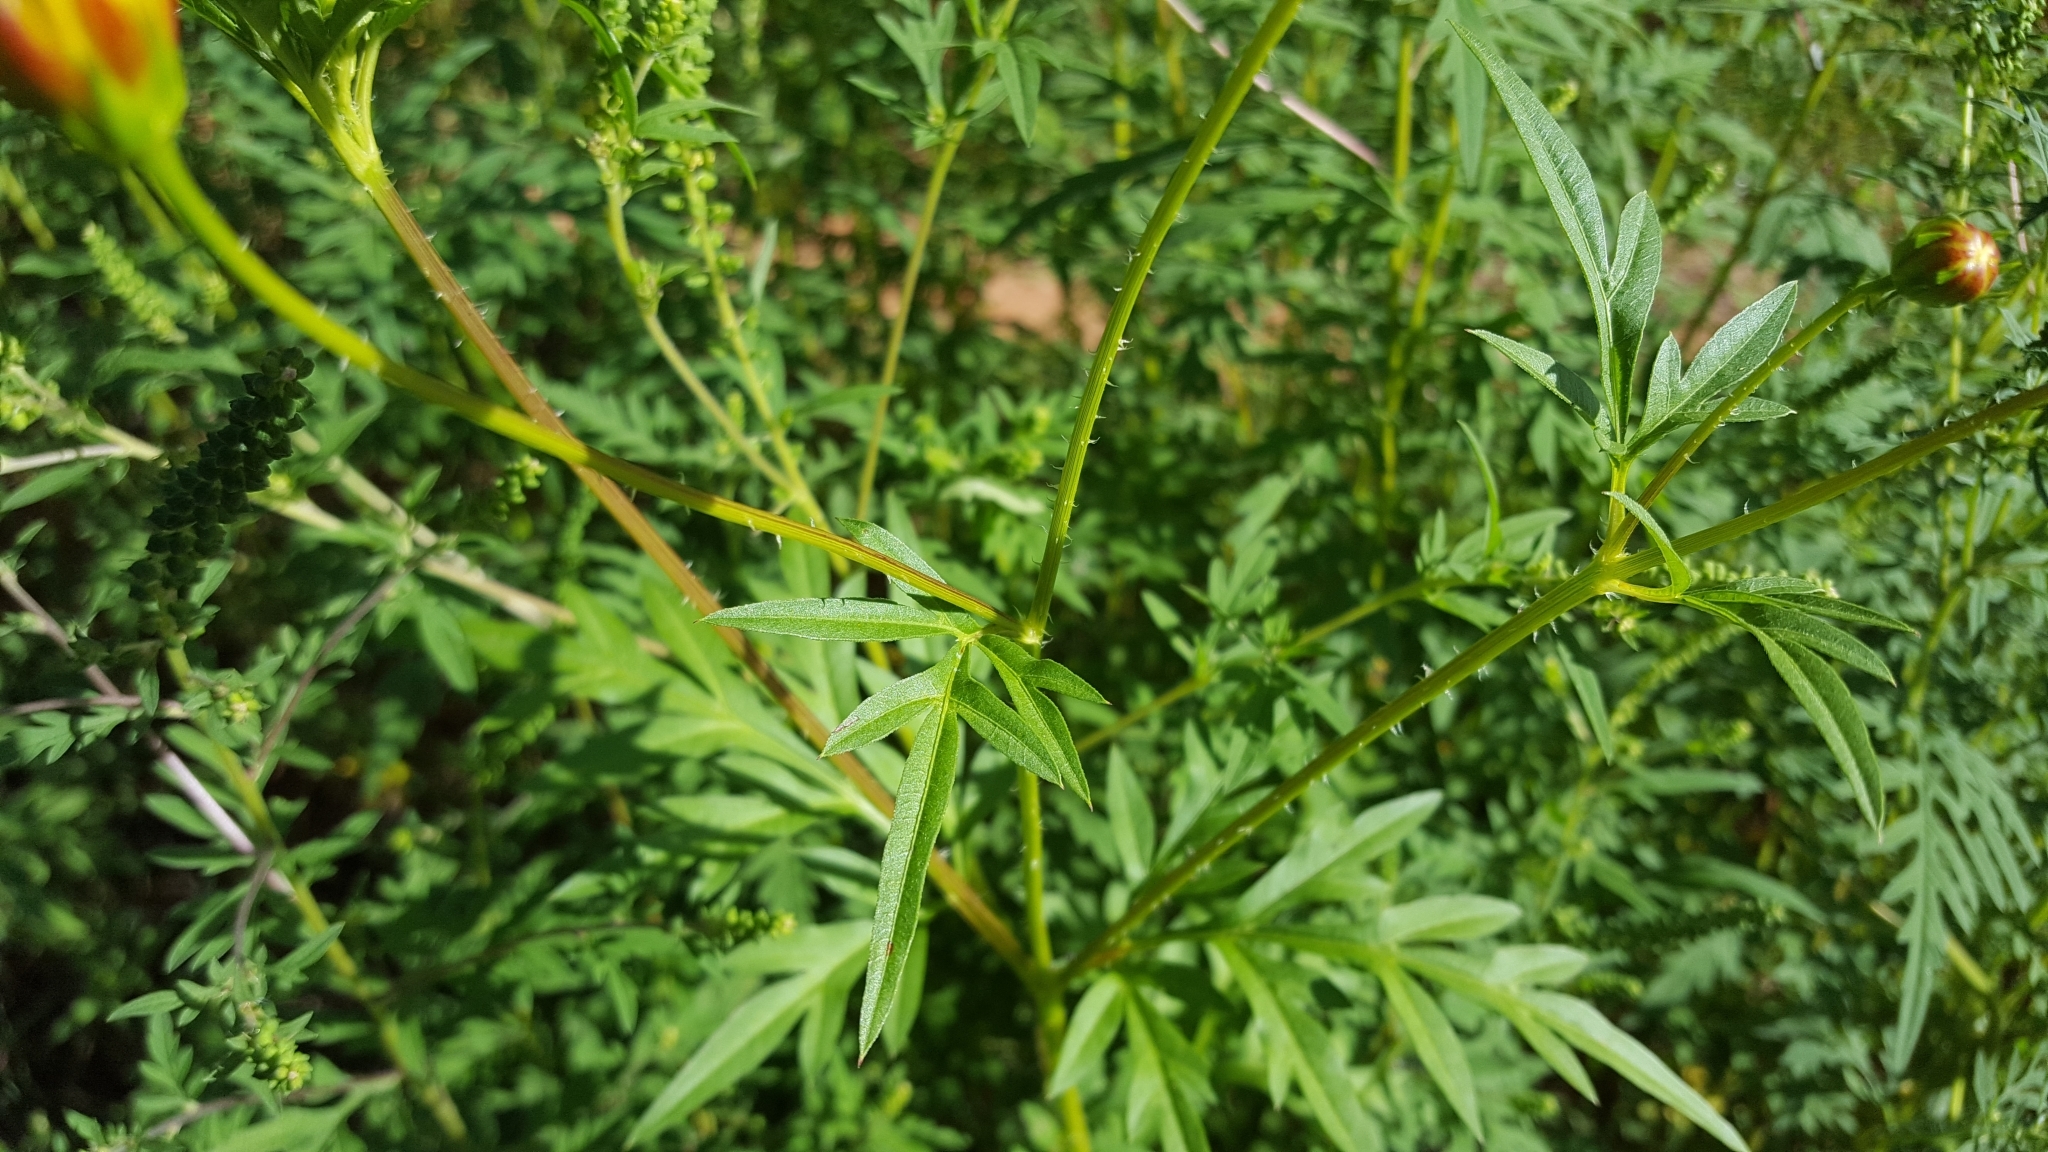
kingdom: Plantae
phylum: Tracheophyta
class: Magnoliopsida
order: Asterales
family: Asteraceae
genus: Cosmos
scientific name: Cosmos sulphureus
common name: Sulphur cosmos
